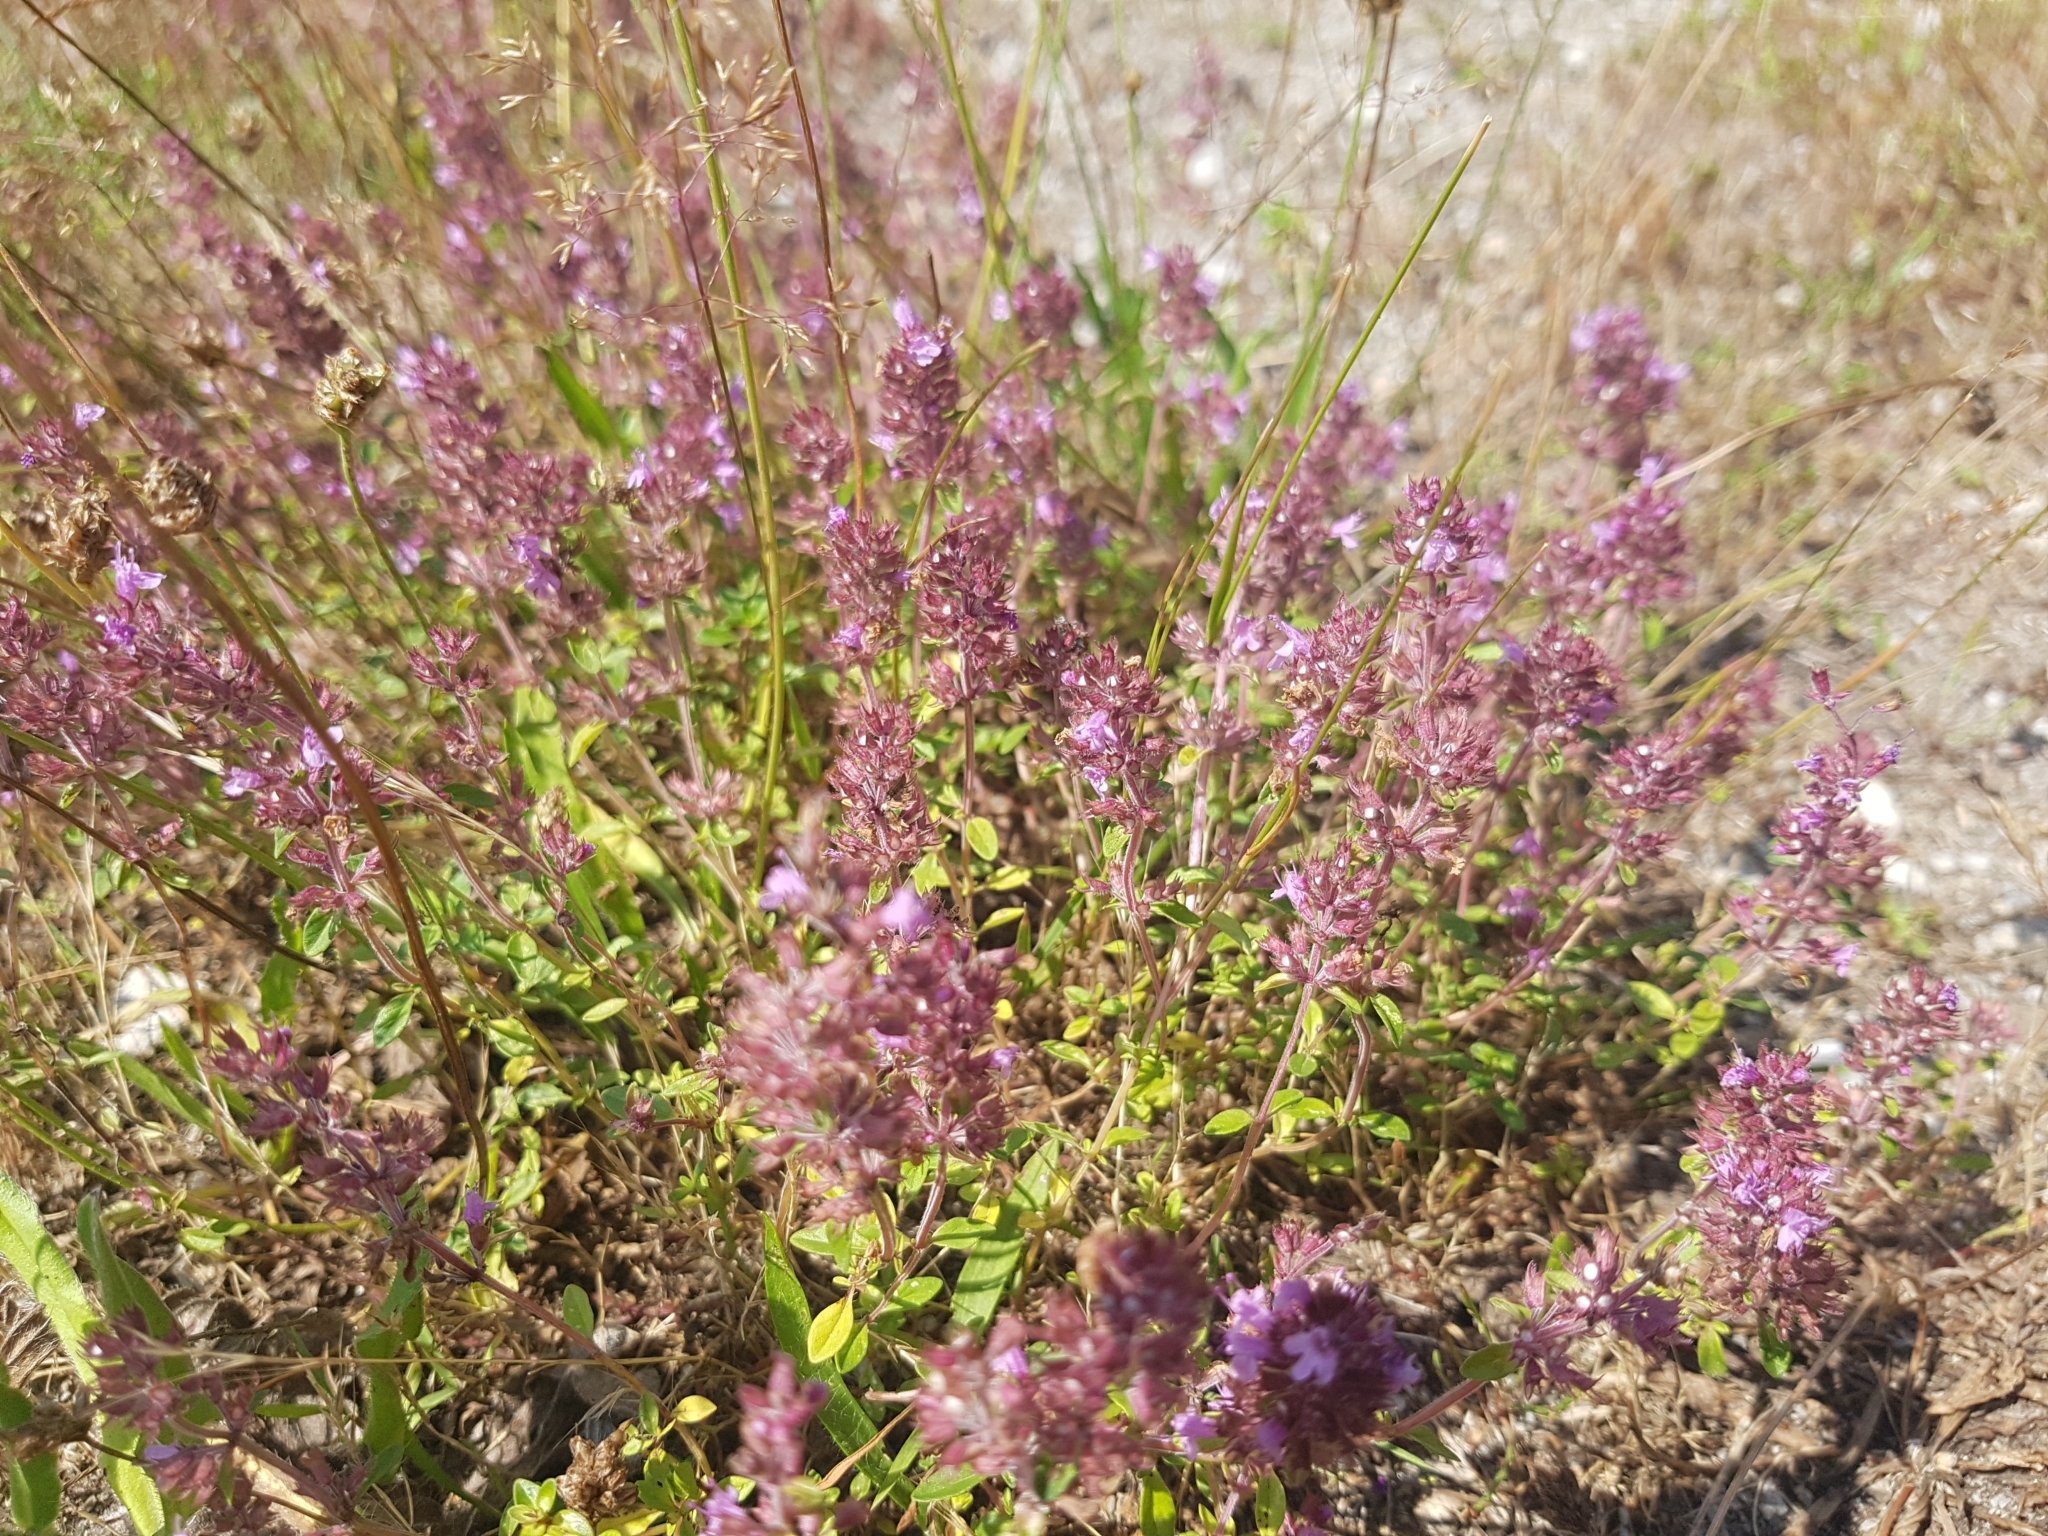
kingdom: Plantae
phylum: Tracheophyta
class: Magnoliopsida
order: Lamiales
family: Lamiaceae
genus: Thymus
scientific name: Thymus pulegioides
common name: Large thyme
